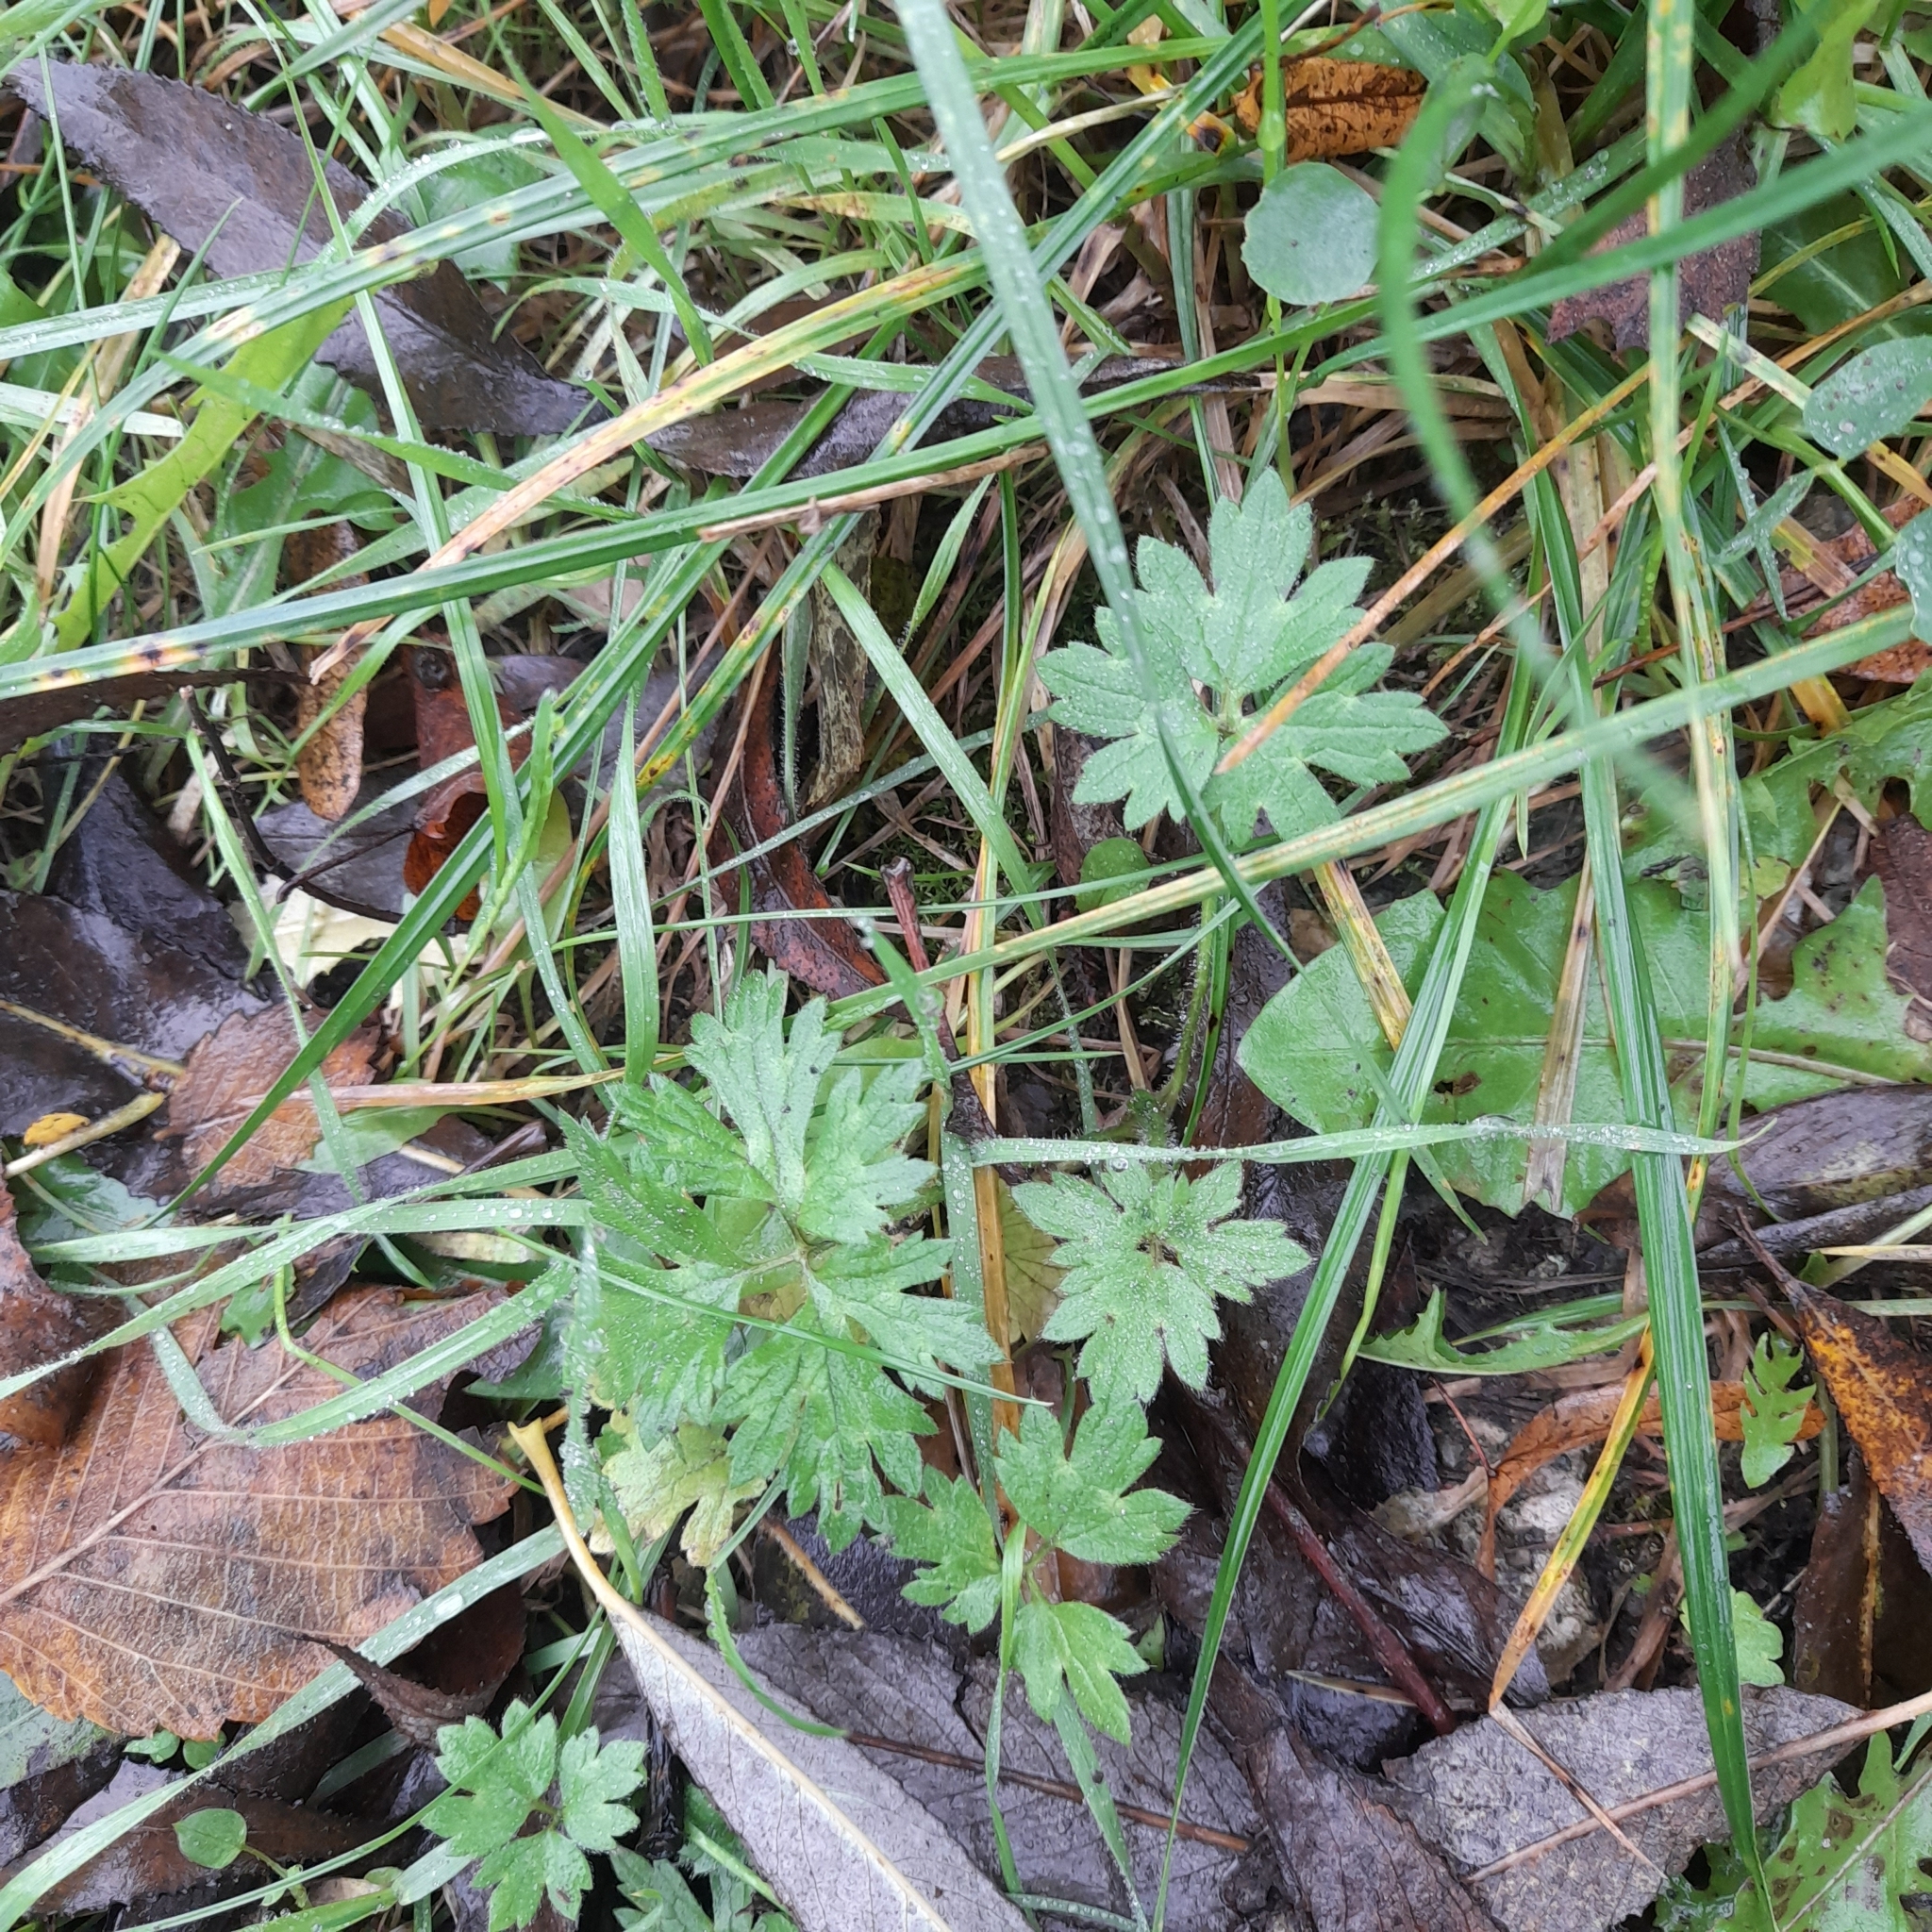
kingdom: Plantae
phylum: Tracheophyta
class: Magnoliopsida
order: Ranunculales
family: Ranunculaceae
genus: Ranunculus
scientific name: Ranunculus repens
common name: Creeping buttercup
